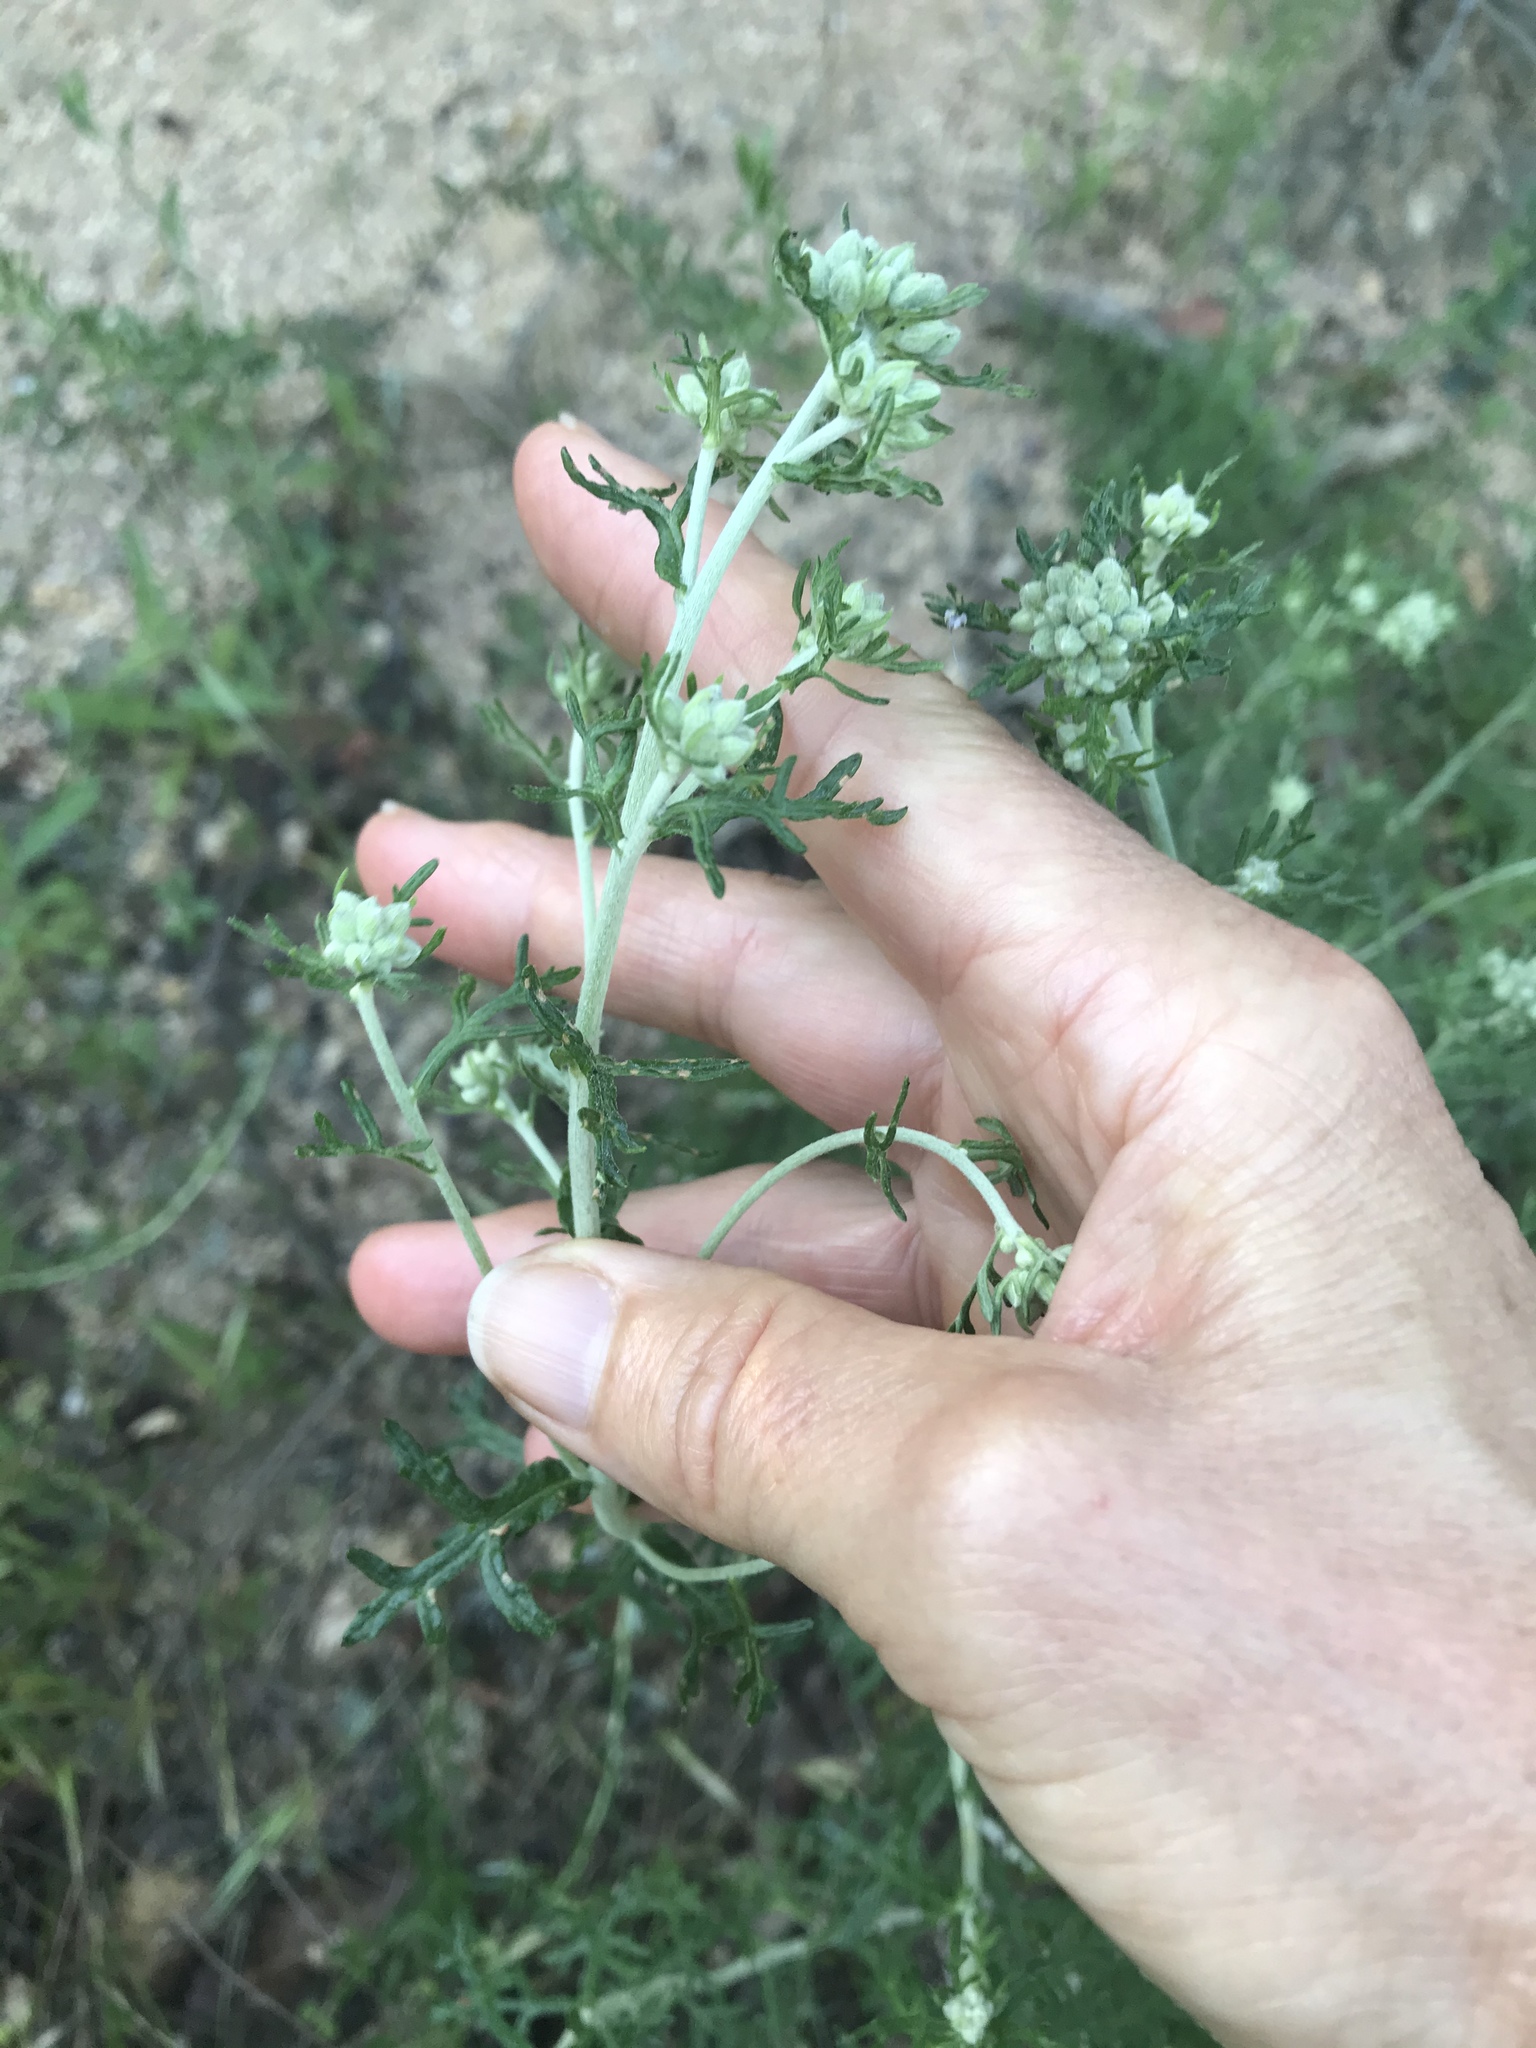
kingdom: Plantae
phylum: Tracheophyta
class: Magnoliopsida
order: Asterales
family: Asteraceae
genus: Eriophyllum
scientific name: Eriophyllum confertiflorum
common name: Golden-yarrow
